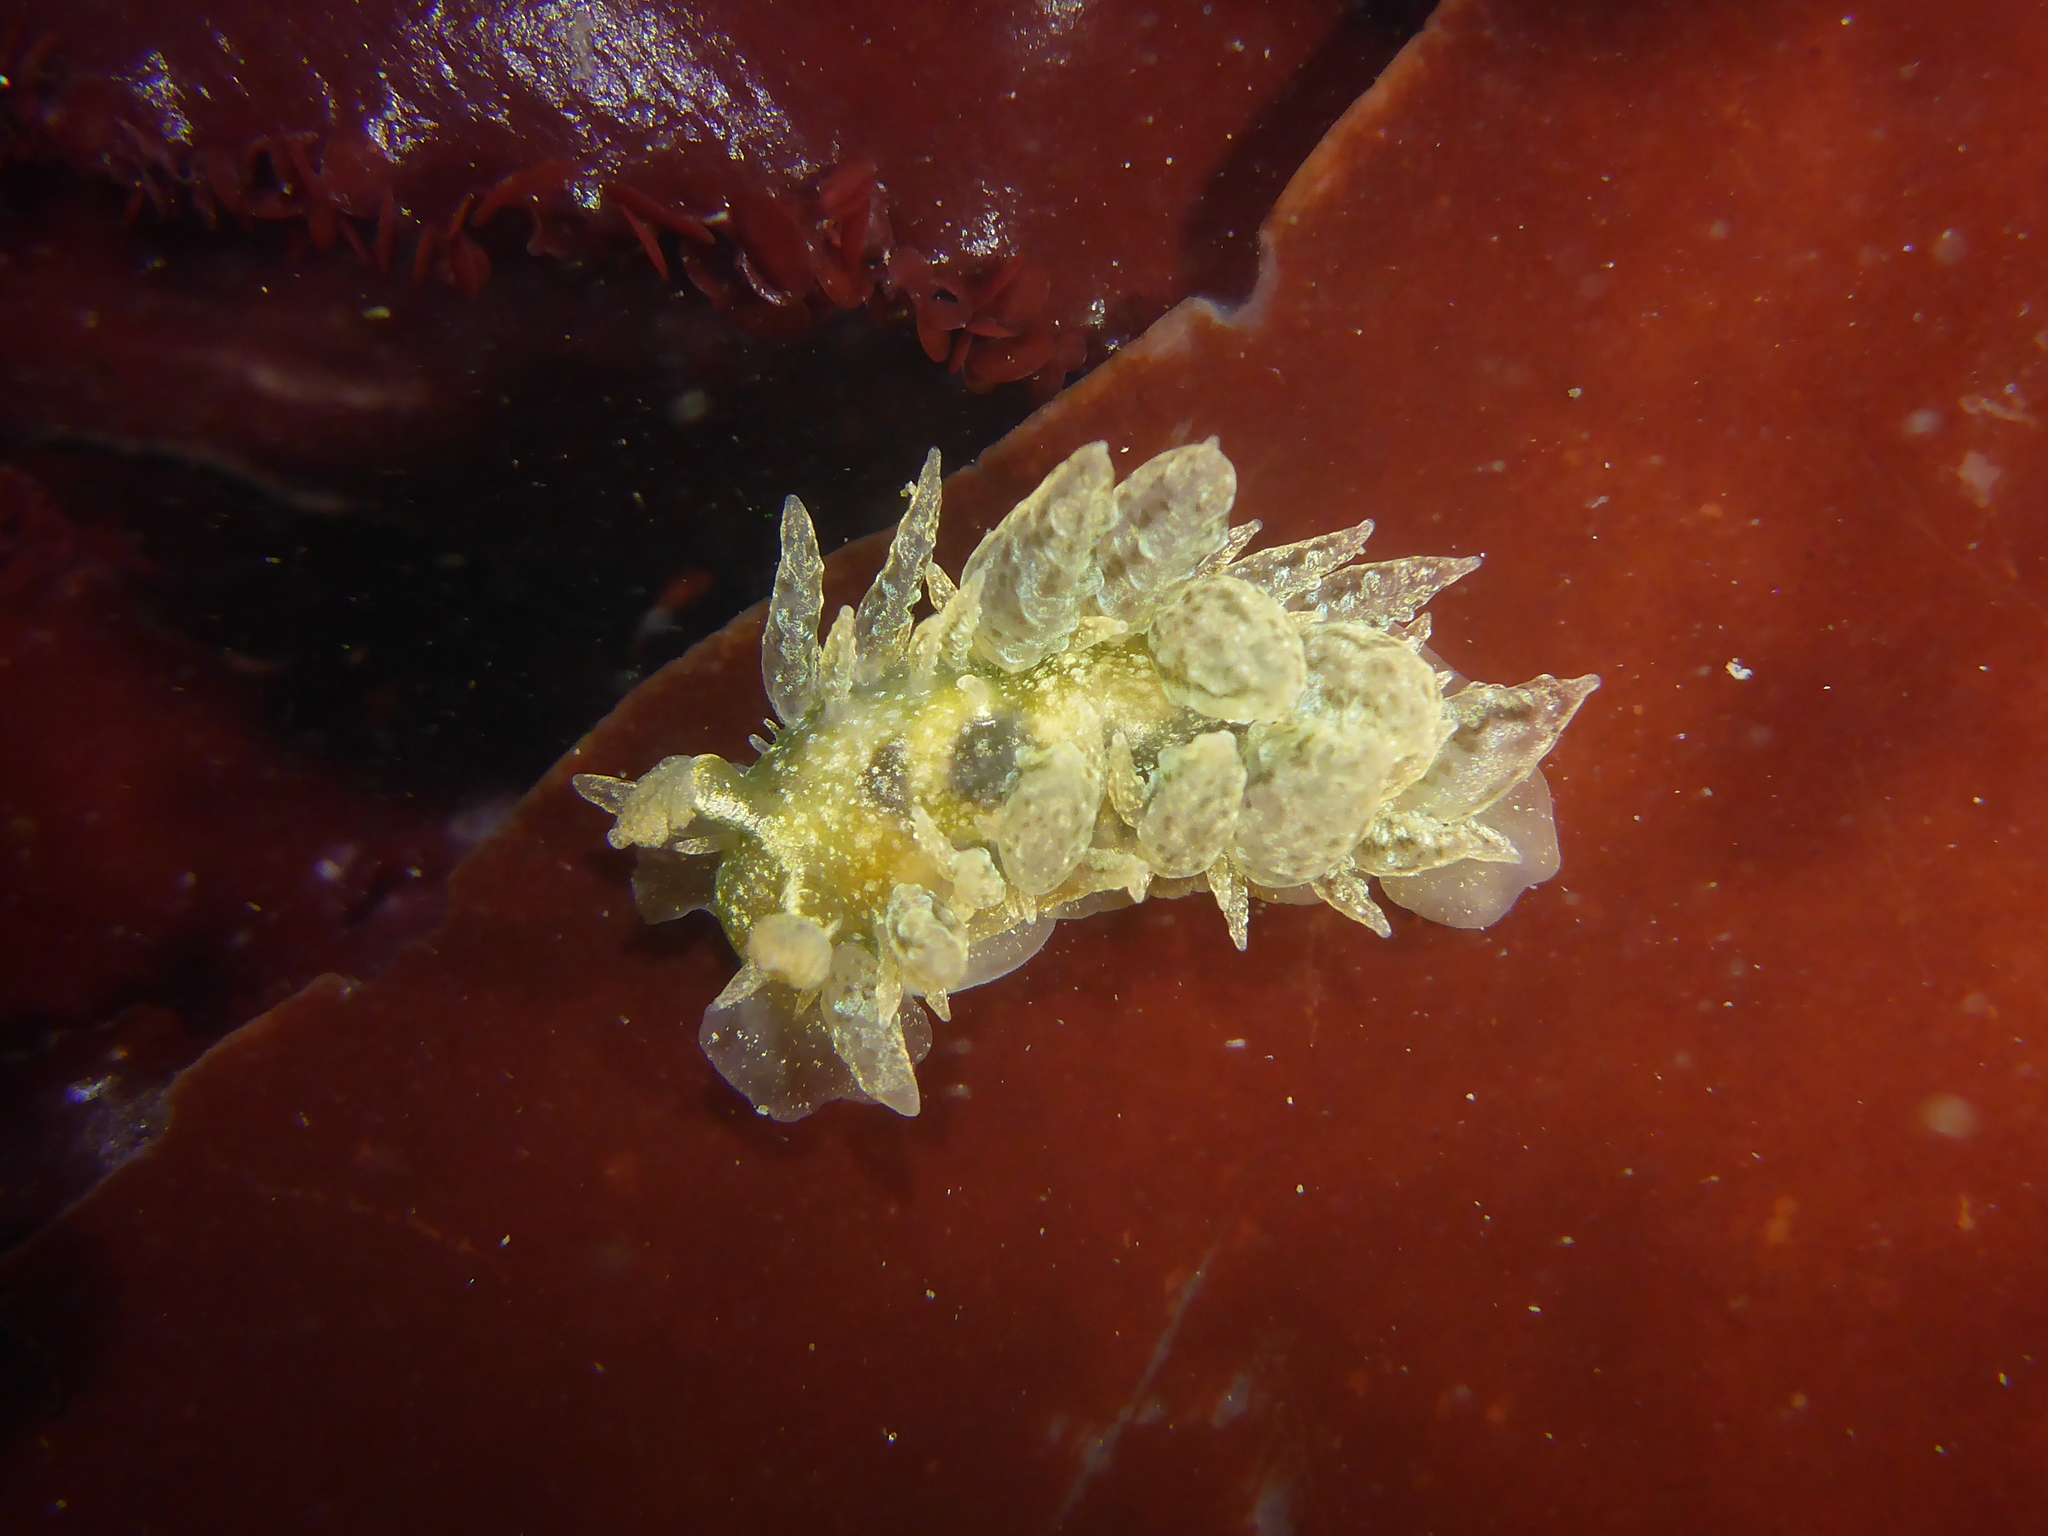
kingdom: Animalia
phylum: Mollusca
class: Gastropoda
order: Nudibranchia
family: Dironidae
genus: Dirona
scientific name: Dirona picta
